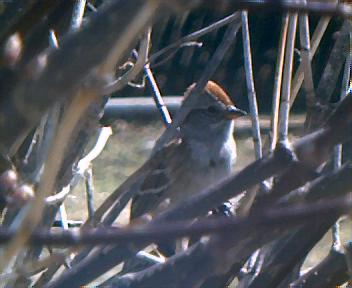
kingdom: Animalia
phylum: Chordata
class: Aves
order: Passeriformes
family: Passerellidae
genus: Spizelloides
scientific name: Spizelloides arborea
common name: American tree sparrow
